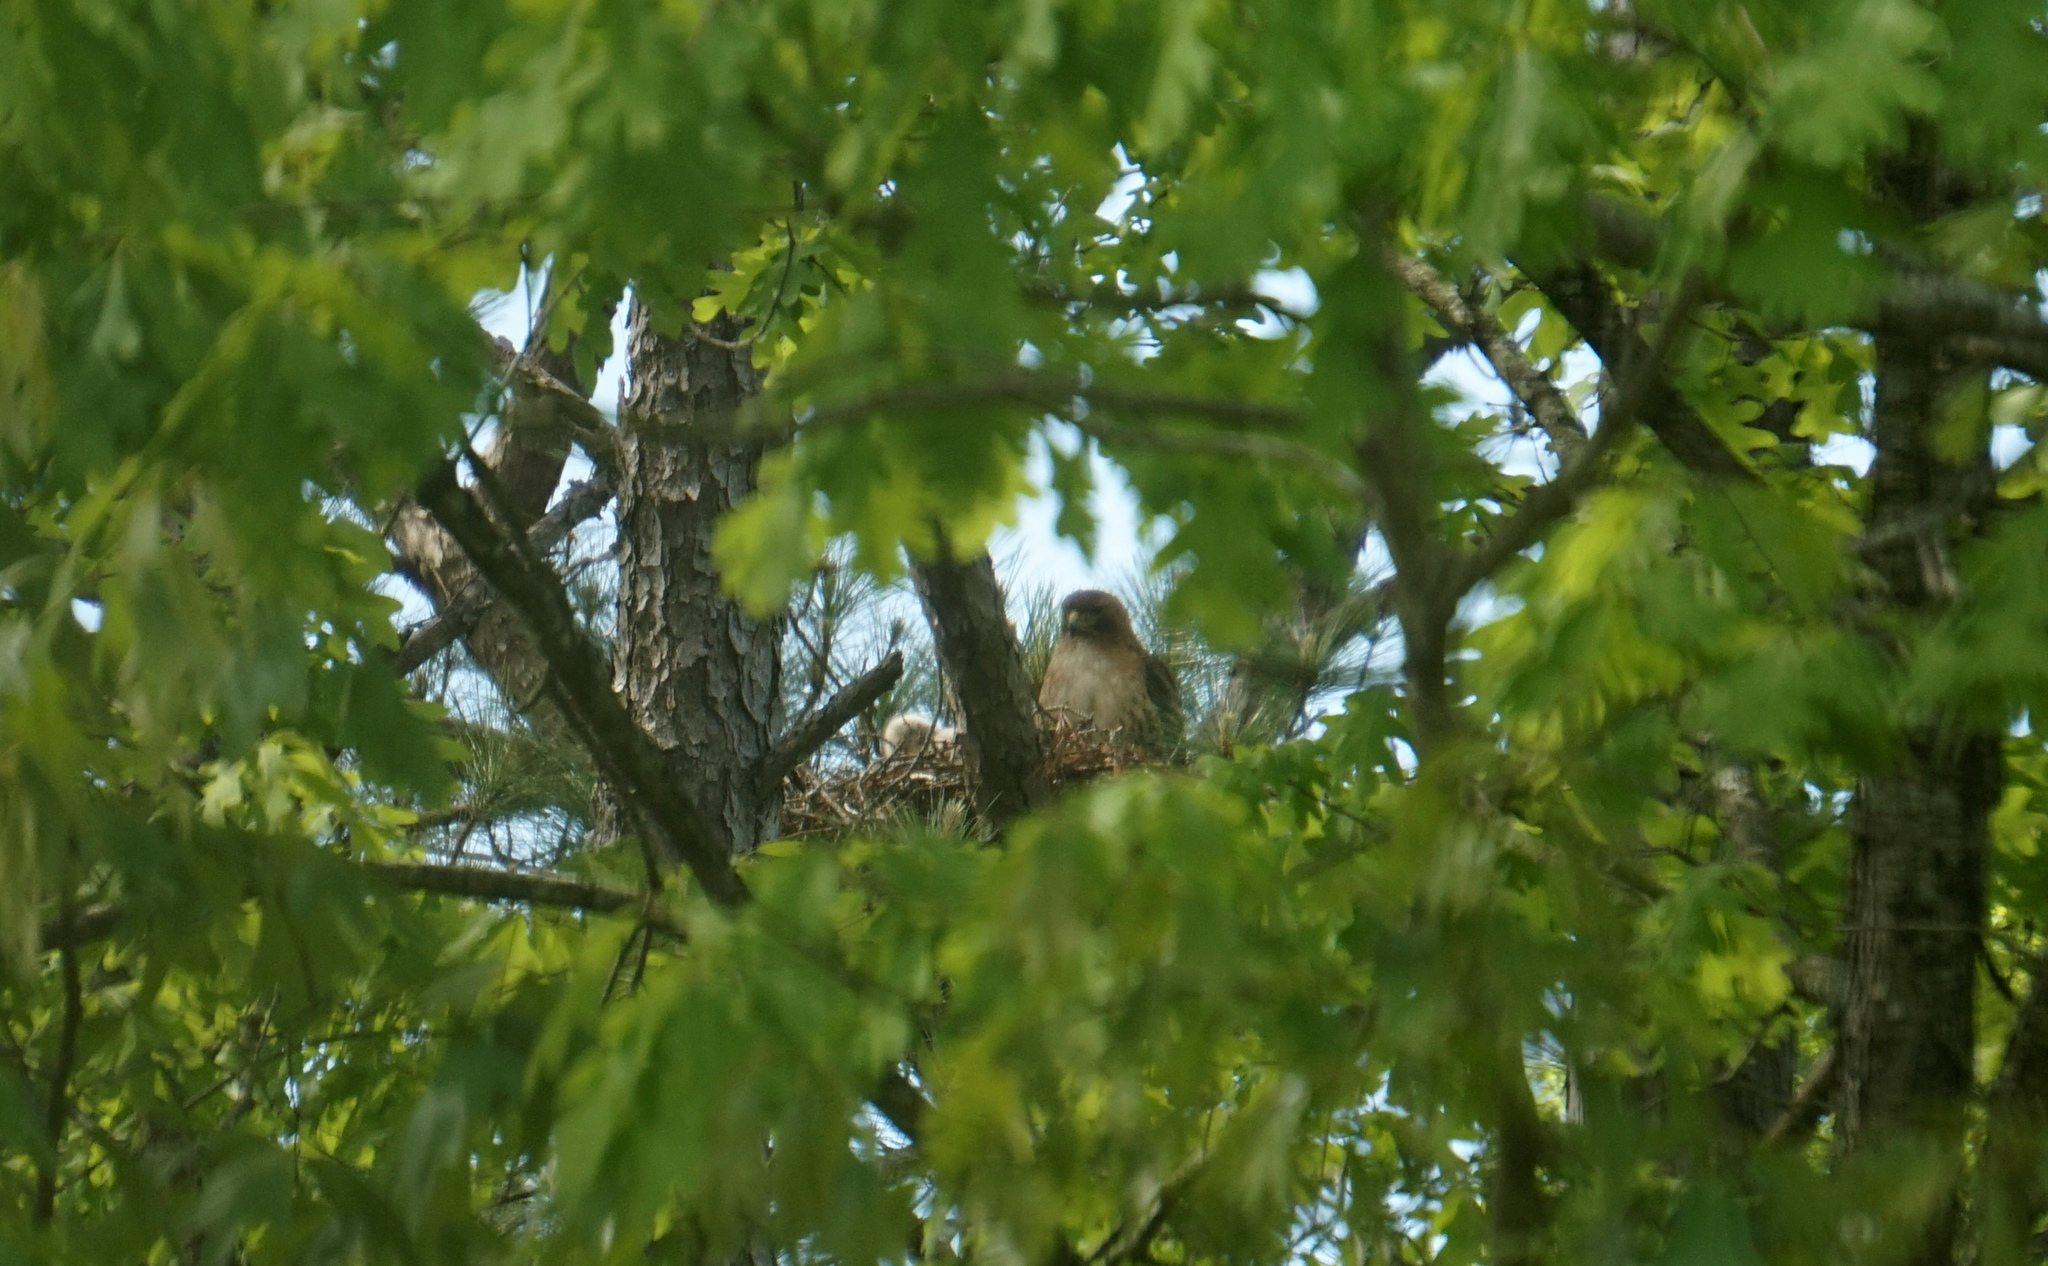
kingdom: Animalia
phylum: Chordata
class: Aves
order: Accipitriformes
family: Accipitridae
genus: Buteo
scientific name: Buteo jamaicensis
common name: Red-tailed hawk
